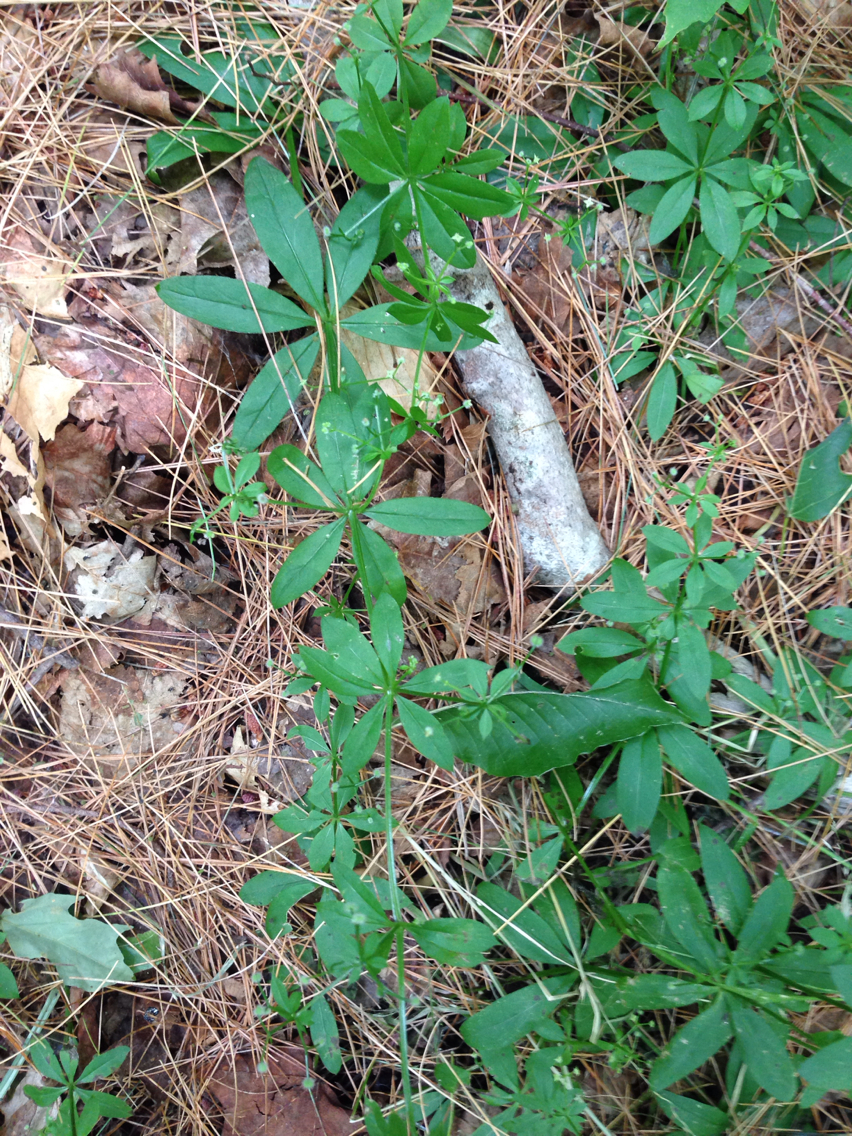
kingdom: Plantae
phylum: Tracheophyta
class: Magnoliopsida
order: Gentianales
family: Rubiaceae
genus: Galium
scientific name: Galium triflorum
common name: Fragrant bedstraw
